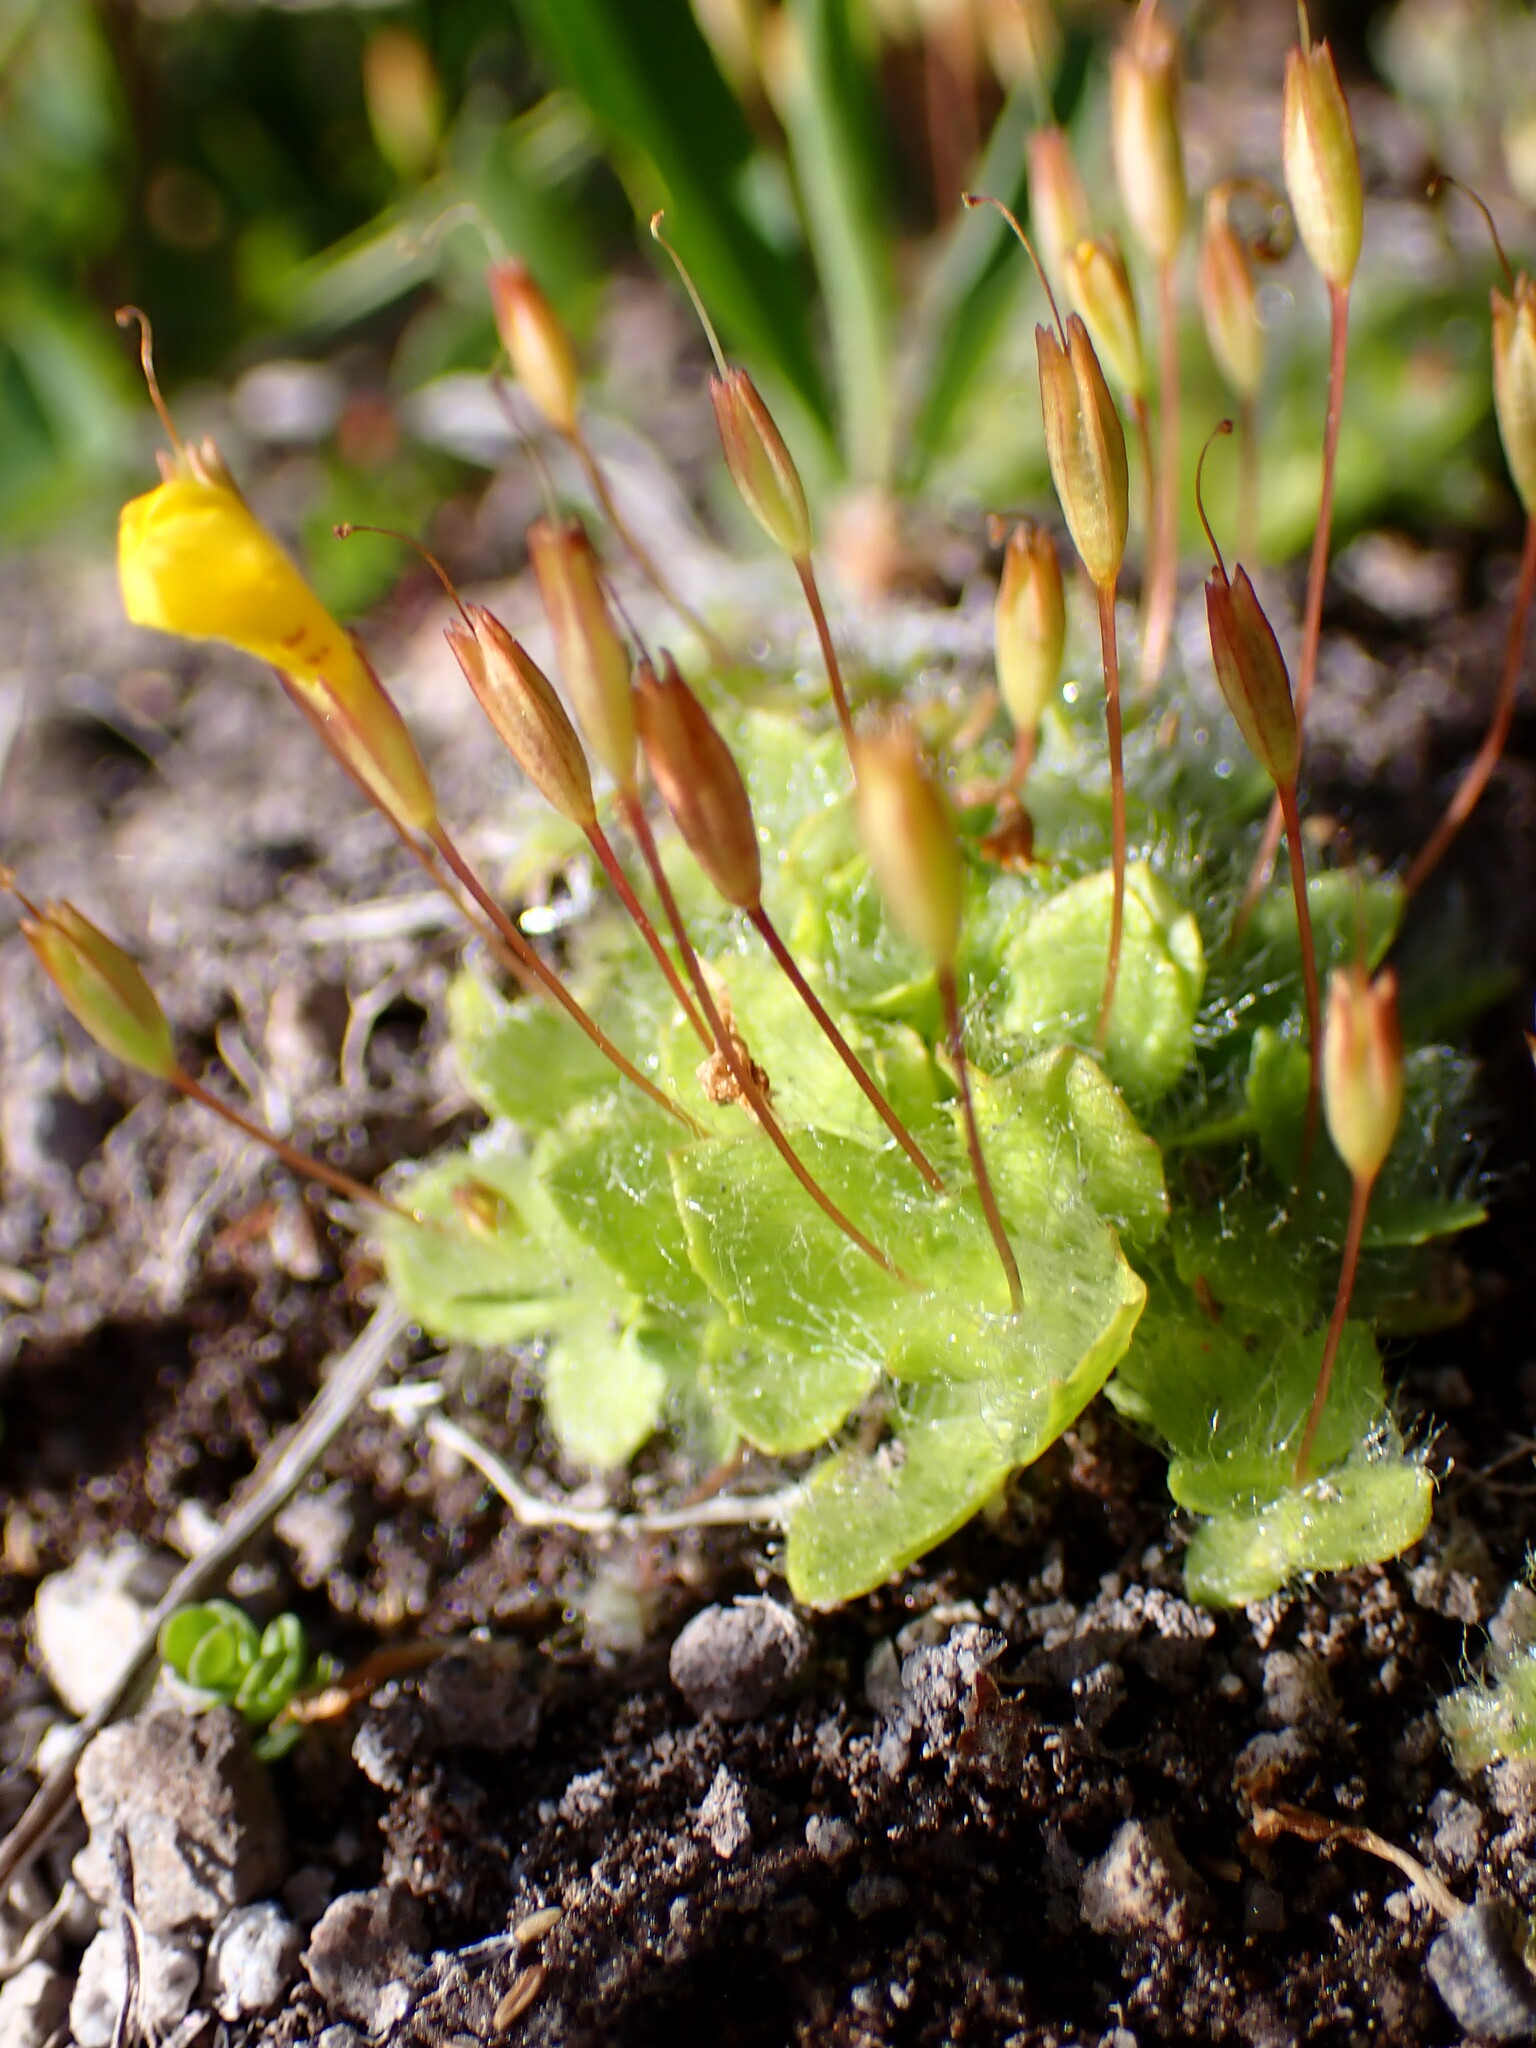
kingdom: Plantae
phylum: Tracheophyta
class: Magnoliopsida
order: Lamiales
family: Phrymaceae
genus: Erythranthe
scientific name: Erythranthe primuloides
